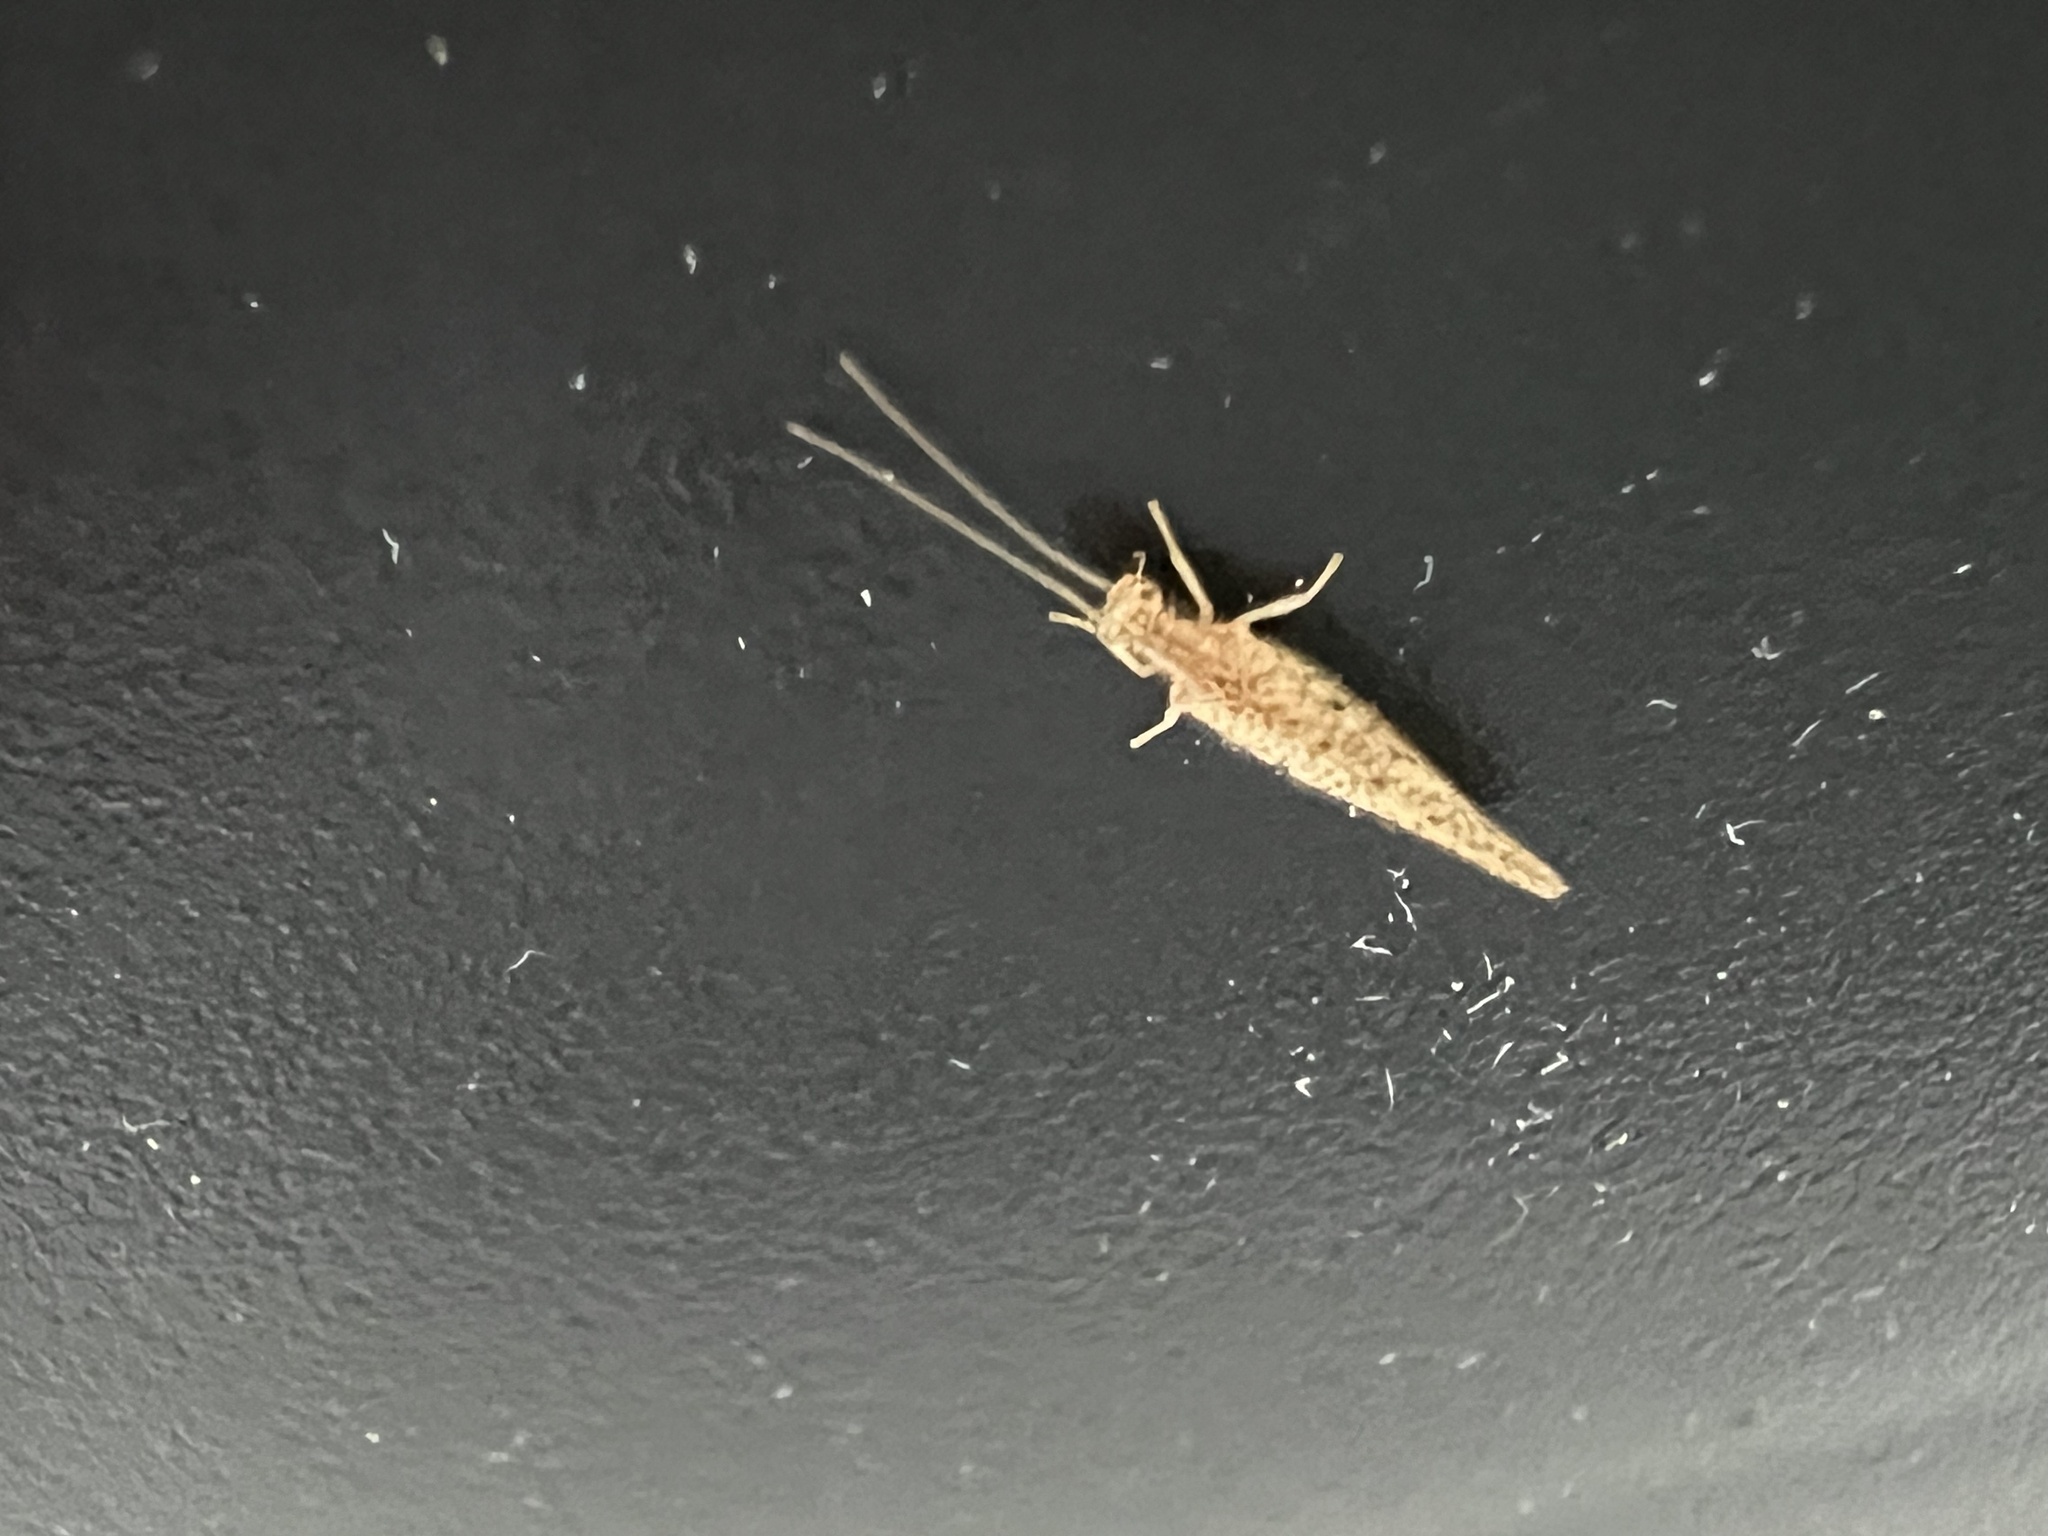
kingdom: Animalia
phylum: Arthropoda
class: Insecta
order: Neuroptera
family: Hemerobiidae
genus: Micromus
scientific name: Micromus tasmaniae
